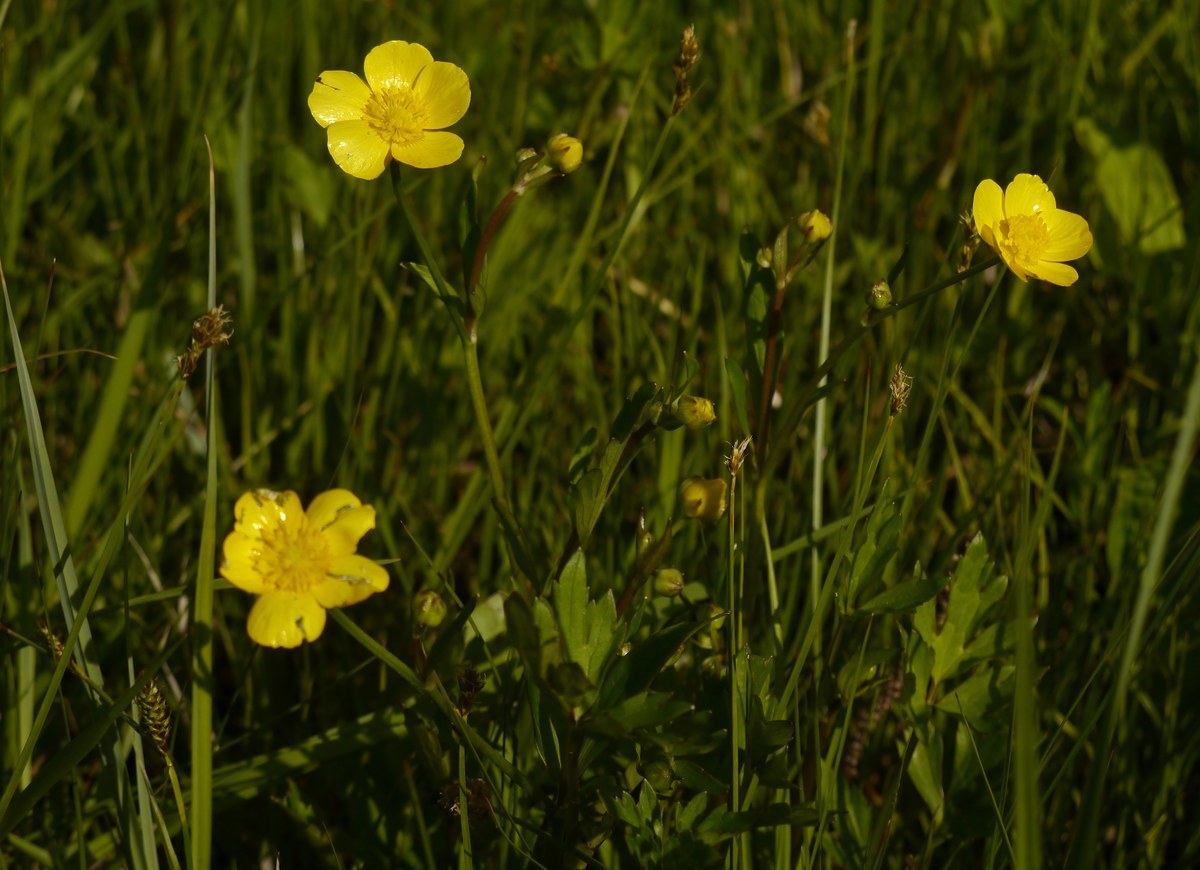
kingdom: Plantae
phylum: Tracheophyta
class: Magnoliopsida
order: Ranunculales
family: Ranunculaceae
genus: Ranunculus
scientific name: Ranunculus repens
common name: Creeping buttercup
